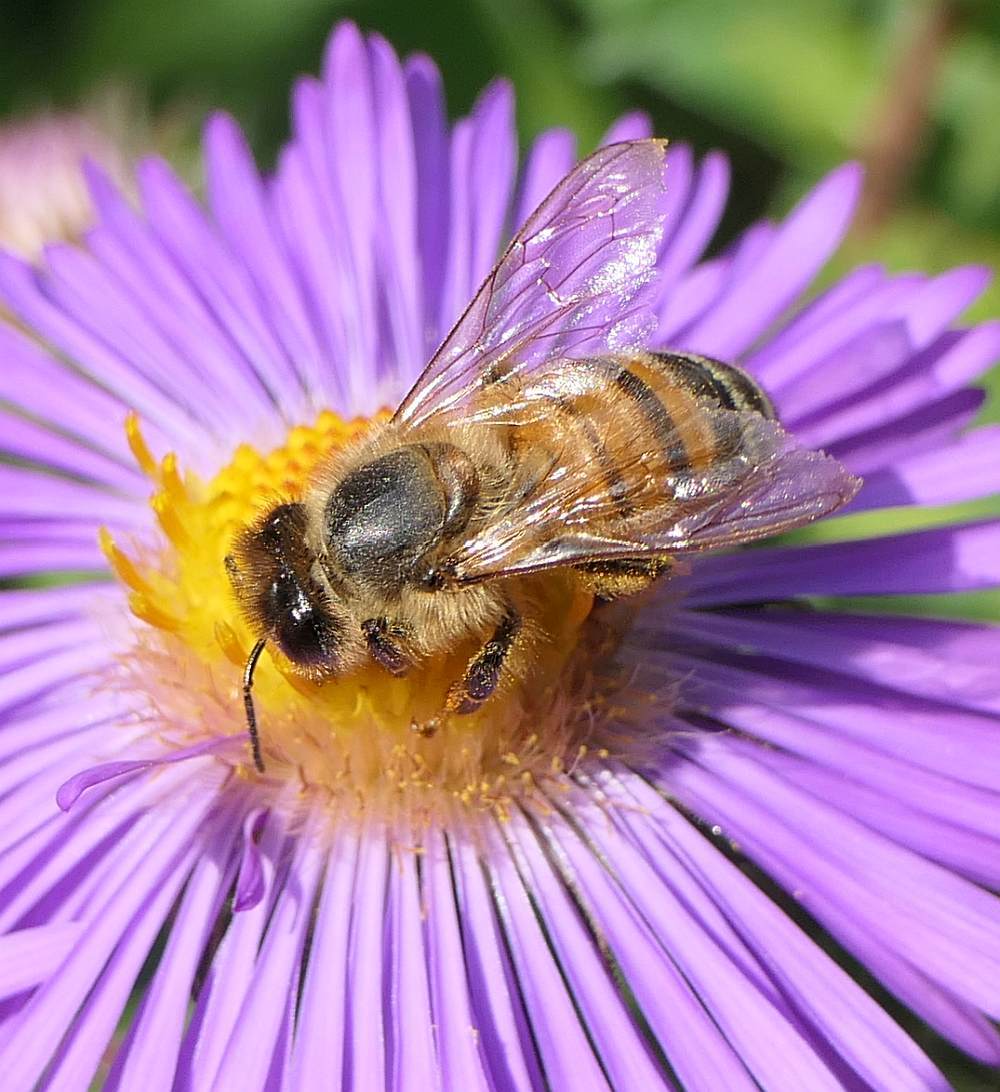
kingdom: Animalia
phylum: Arthropoda
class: Insecta
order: Hymenoptera
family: Apidae
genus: Apis
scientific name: Apis mellifera
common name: Honey bee
